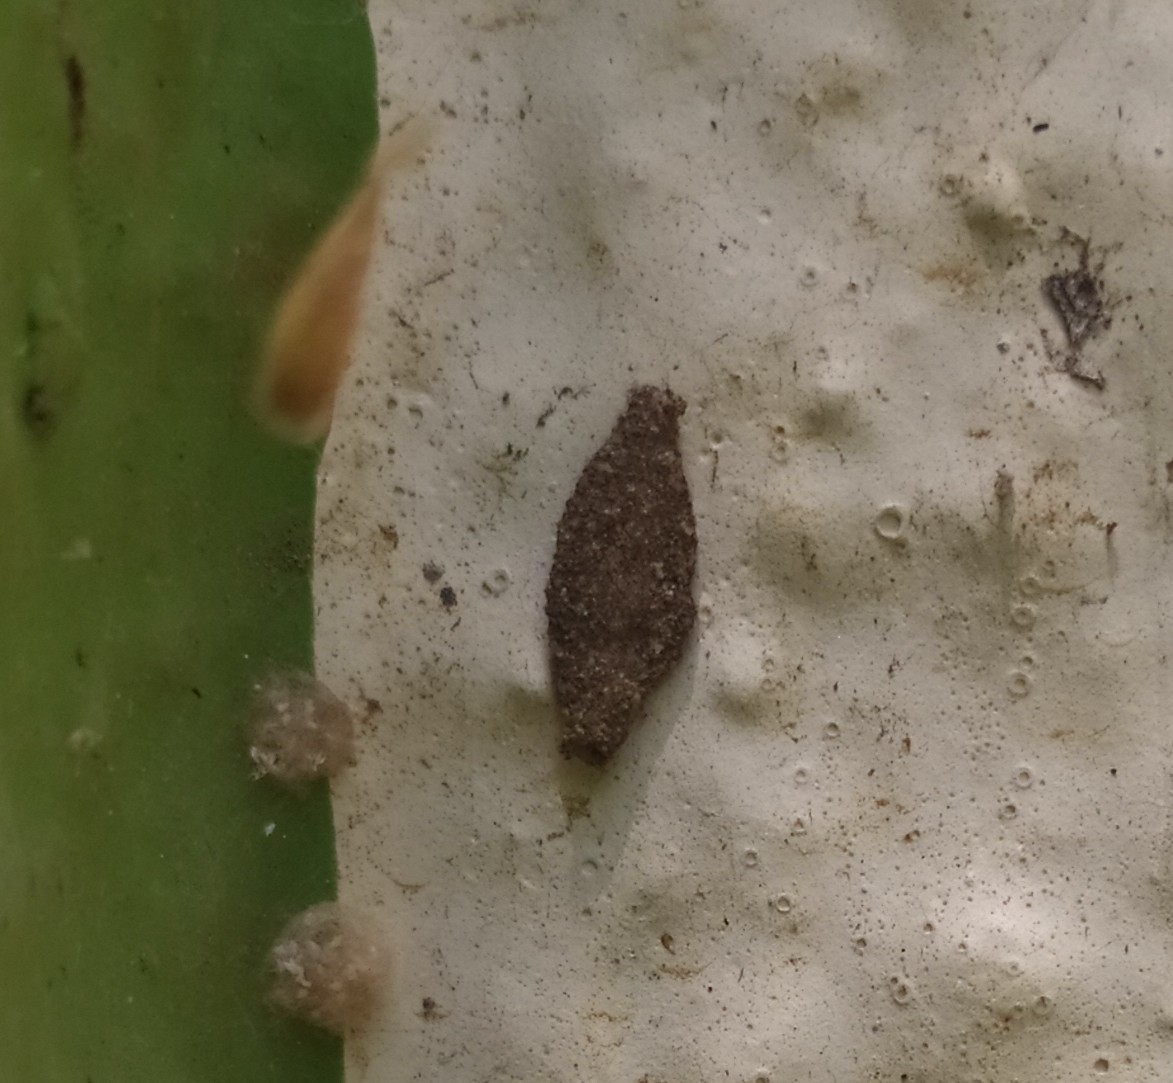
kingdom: Animalia
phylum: Arthropoda
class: Insecta
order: Lepidoptera
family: Tineidae
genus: Phereoeca
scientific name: Phereoeca uterella
